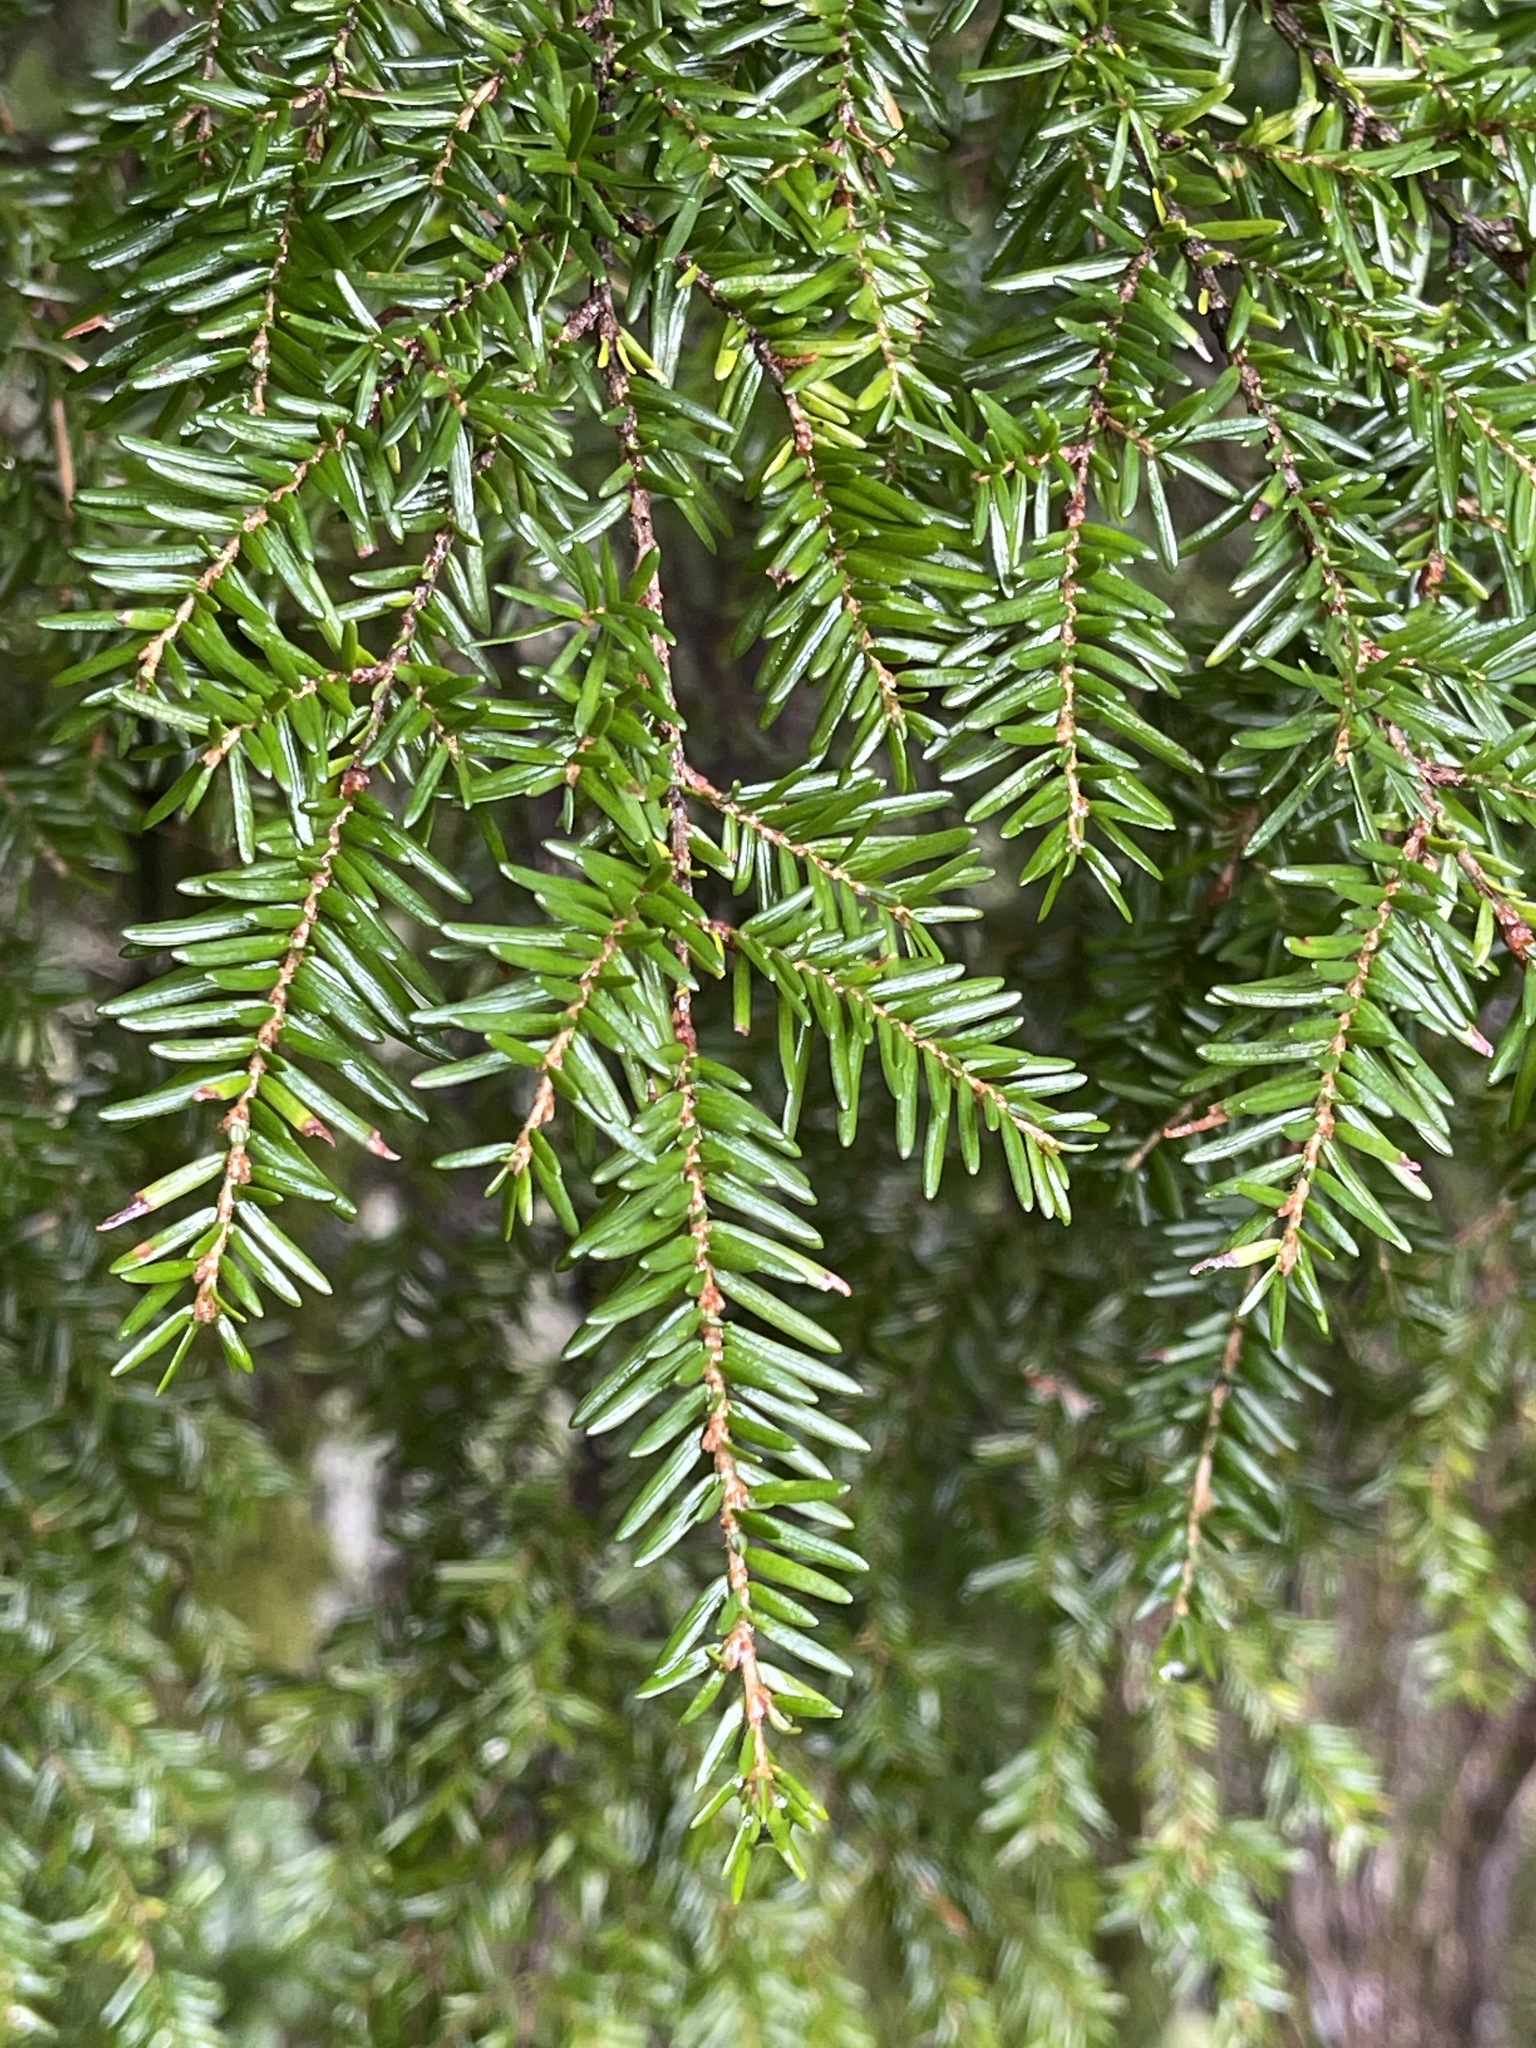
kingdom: Plantae
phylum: Tracheophyta
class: Pinopsida
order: Pinales
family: Pinaceae
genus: Tsuga
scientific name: Tsuga heterophylla
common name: Western hemlock
